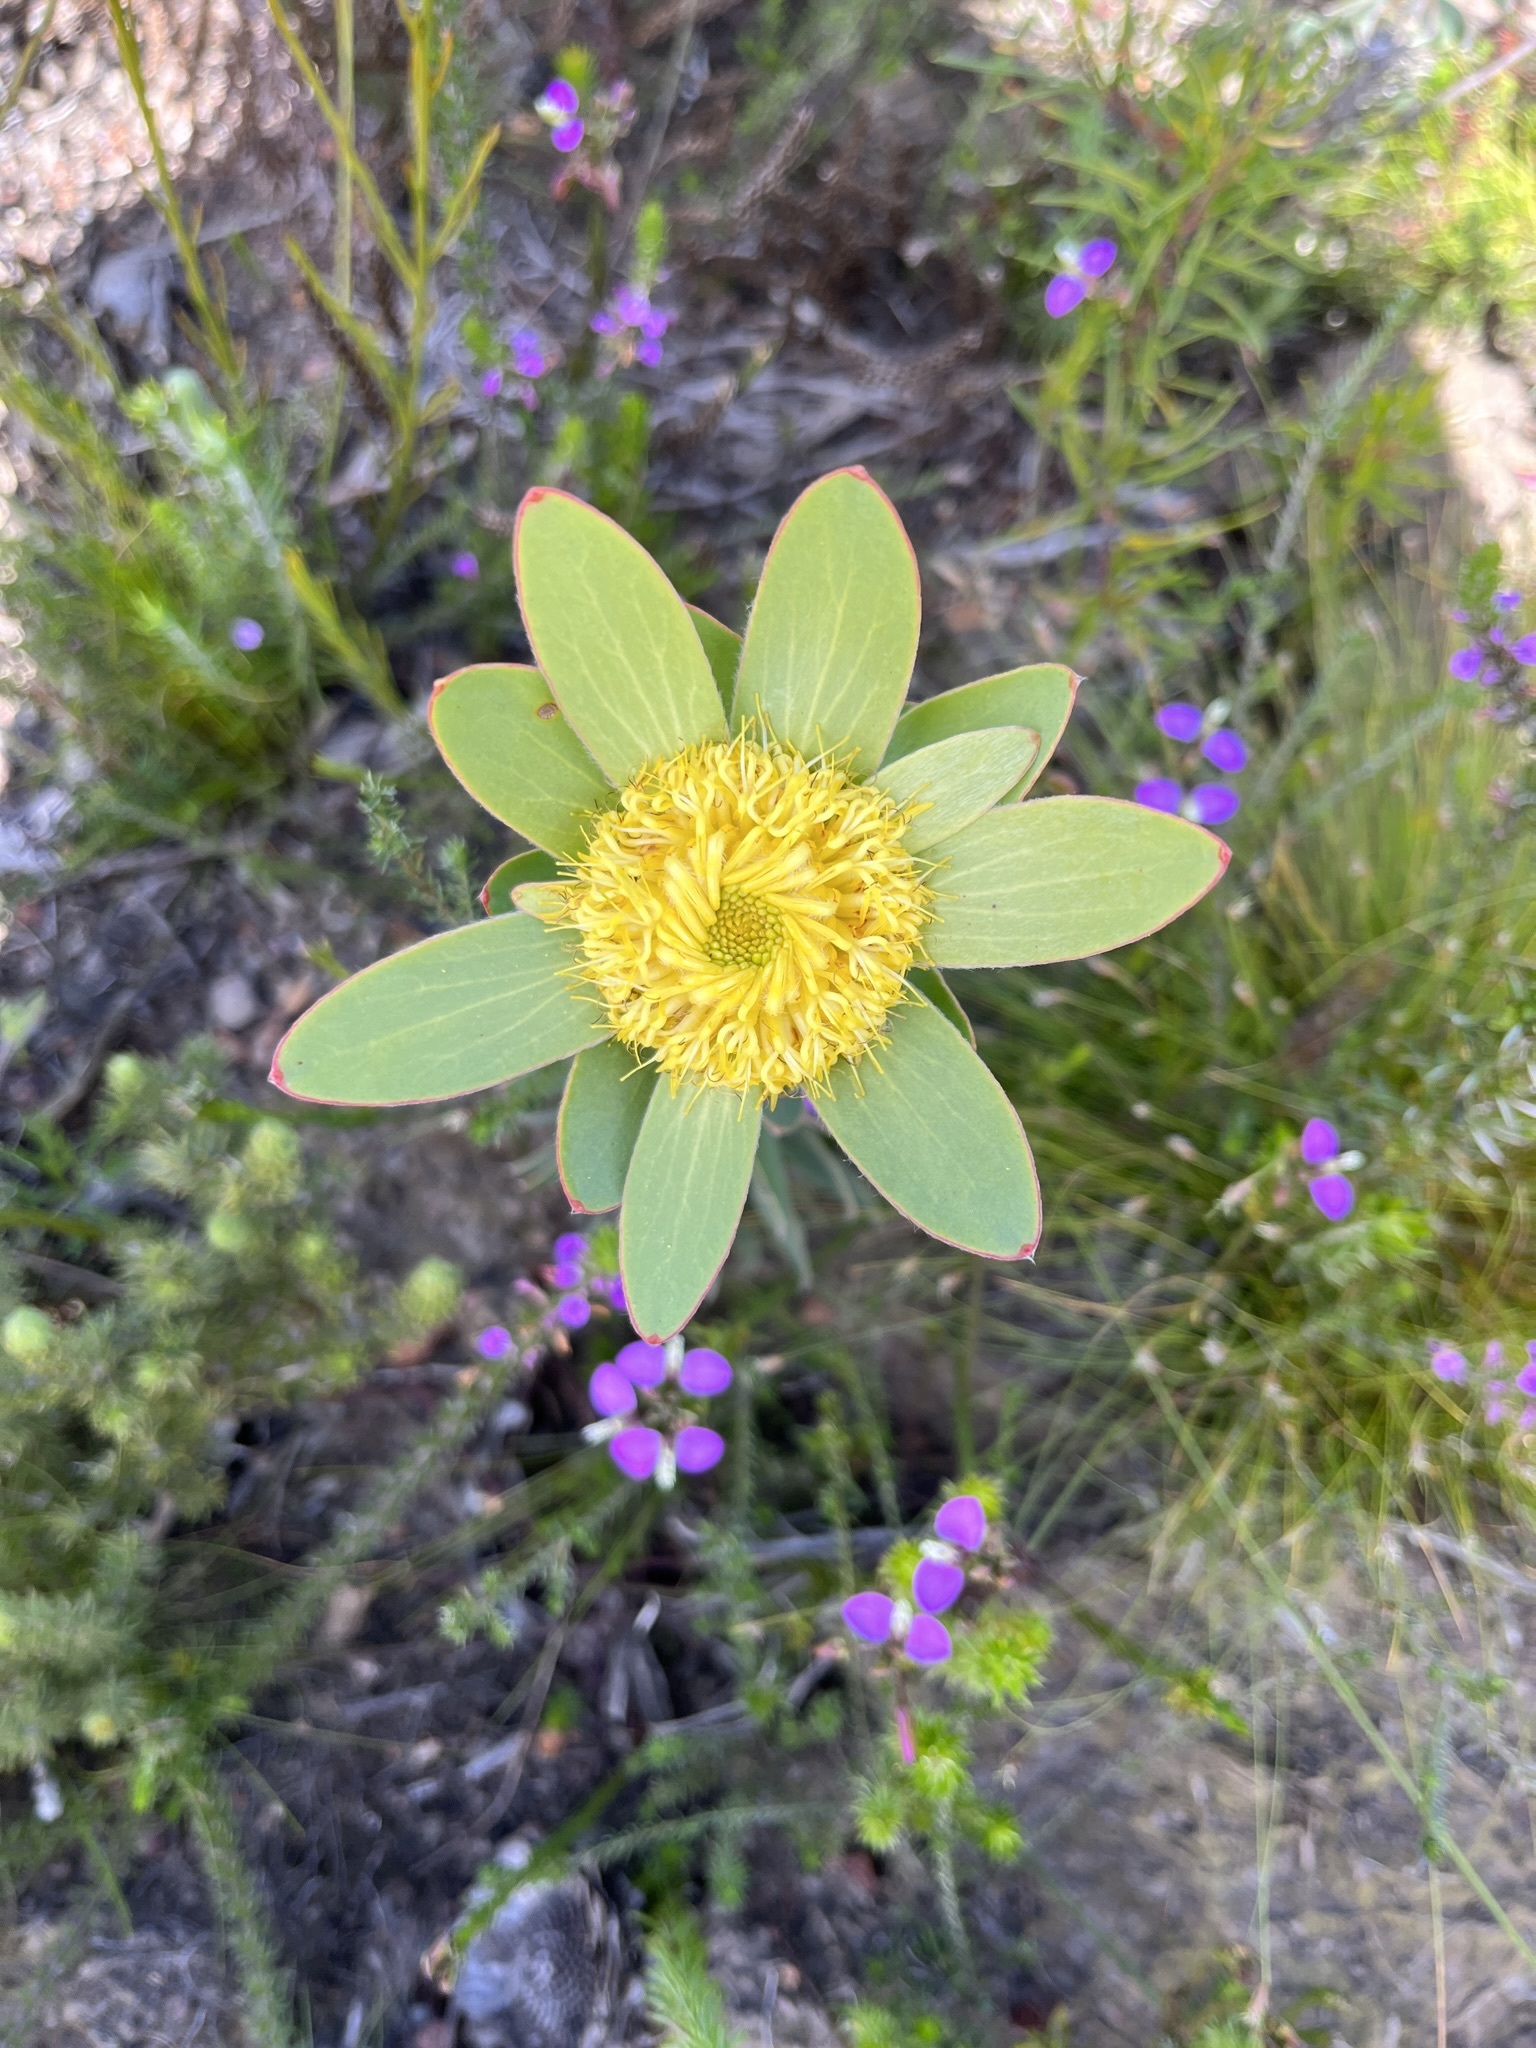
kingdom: Plantae
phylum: Tracheophyta
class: Magnoliopsida
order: Proteales
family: Proteaceae
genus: Leucadendron
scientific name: Leucadendron elimense
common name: Elim conebush
